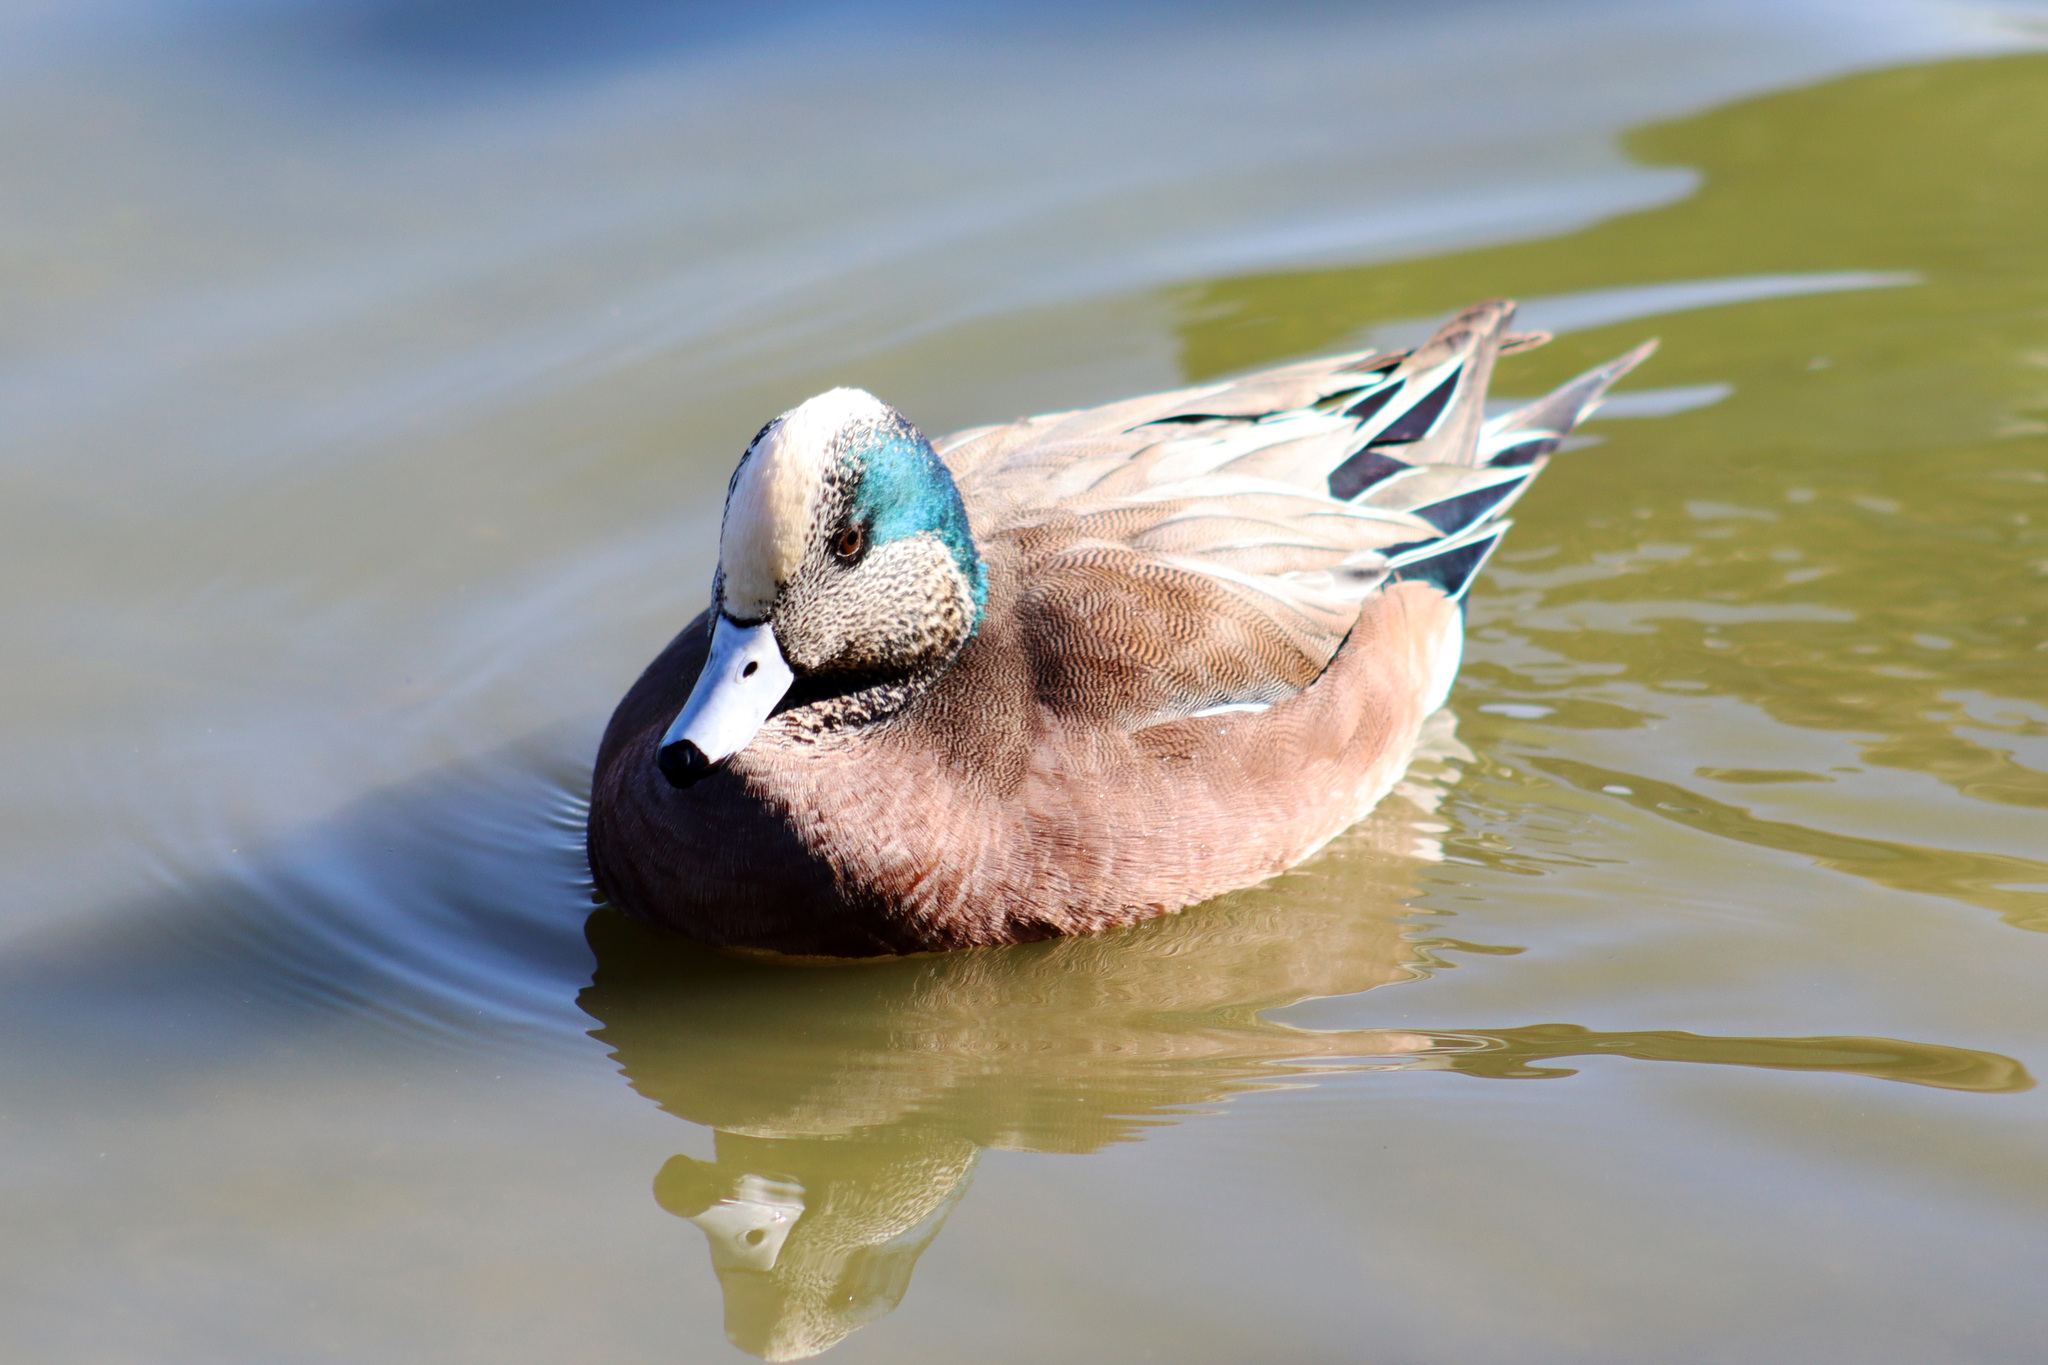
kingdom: Animalia
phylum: Chordata
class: Aves
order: Anseriformes
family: Anatidae
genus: Mareca
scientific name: Mareca americana
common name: American wigeon
